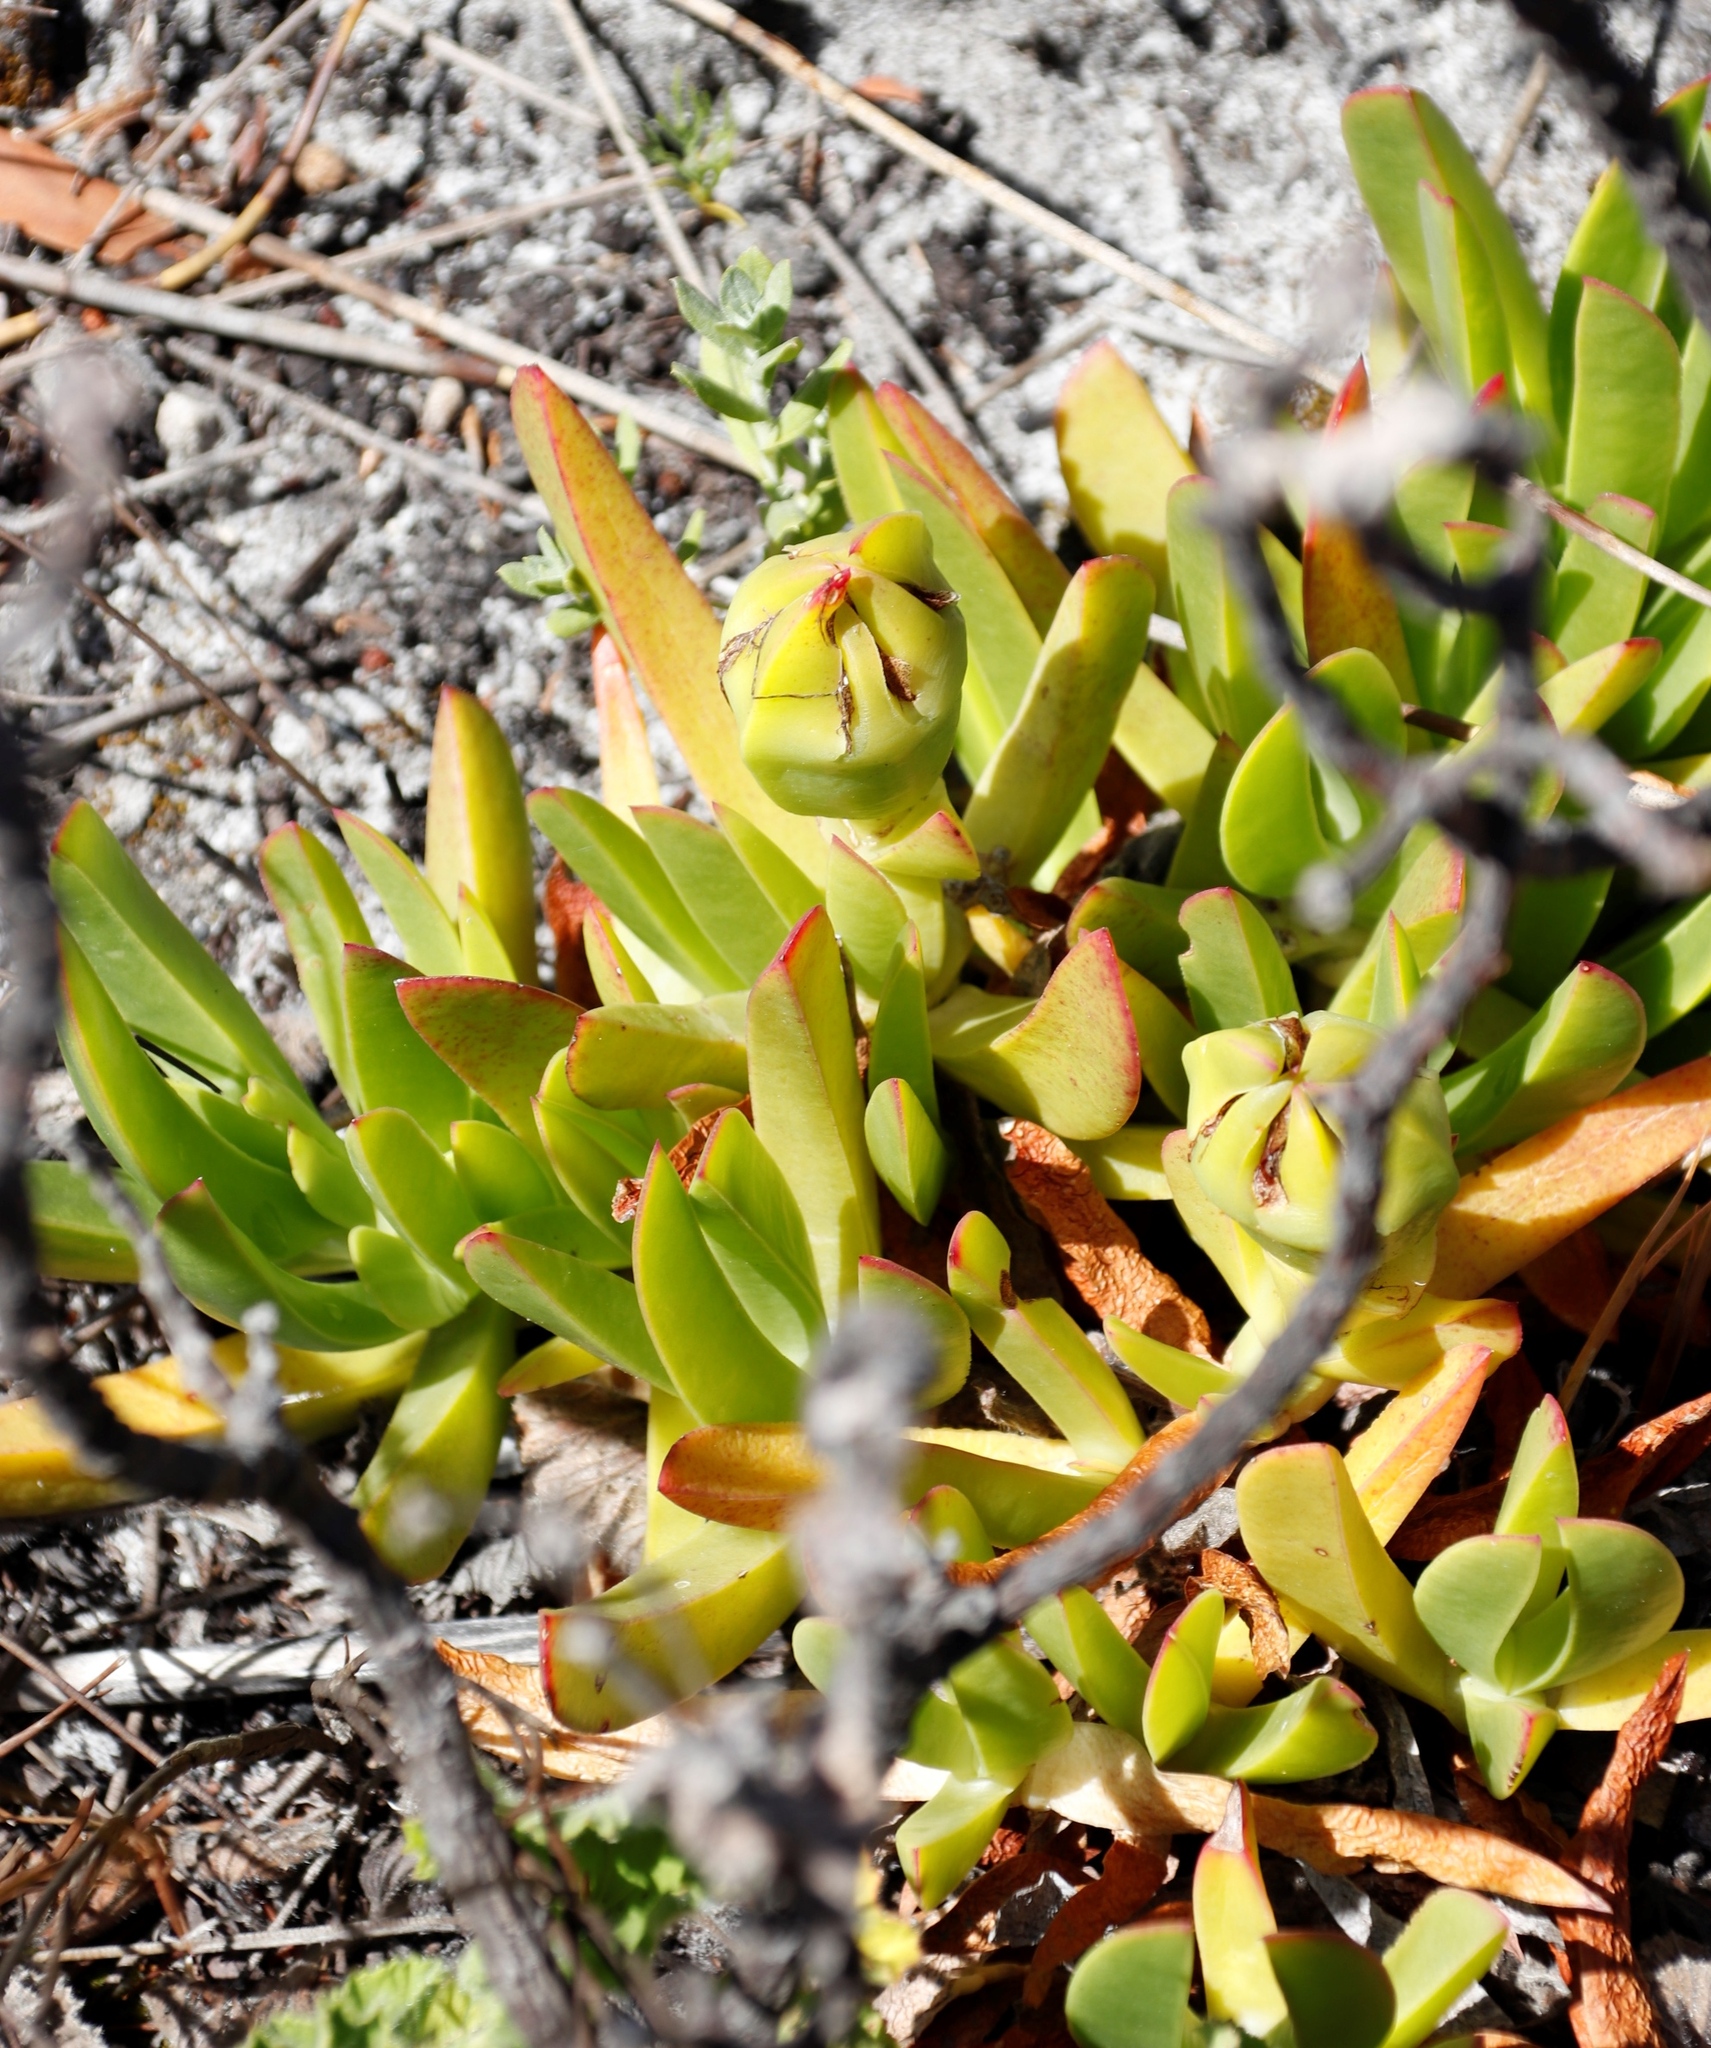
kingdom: Plantae
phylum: Tracheophyta
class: Magnoliopsida
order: Caryophyllales
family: Aizoaceae
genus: Carpobrotus
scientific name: Carpobrotus acinaciformis
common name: Sally-my-handsome
